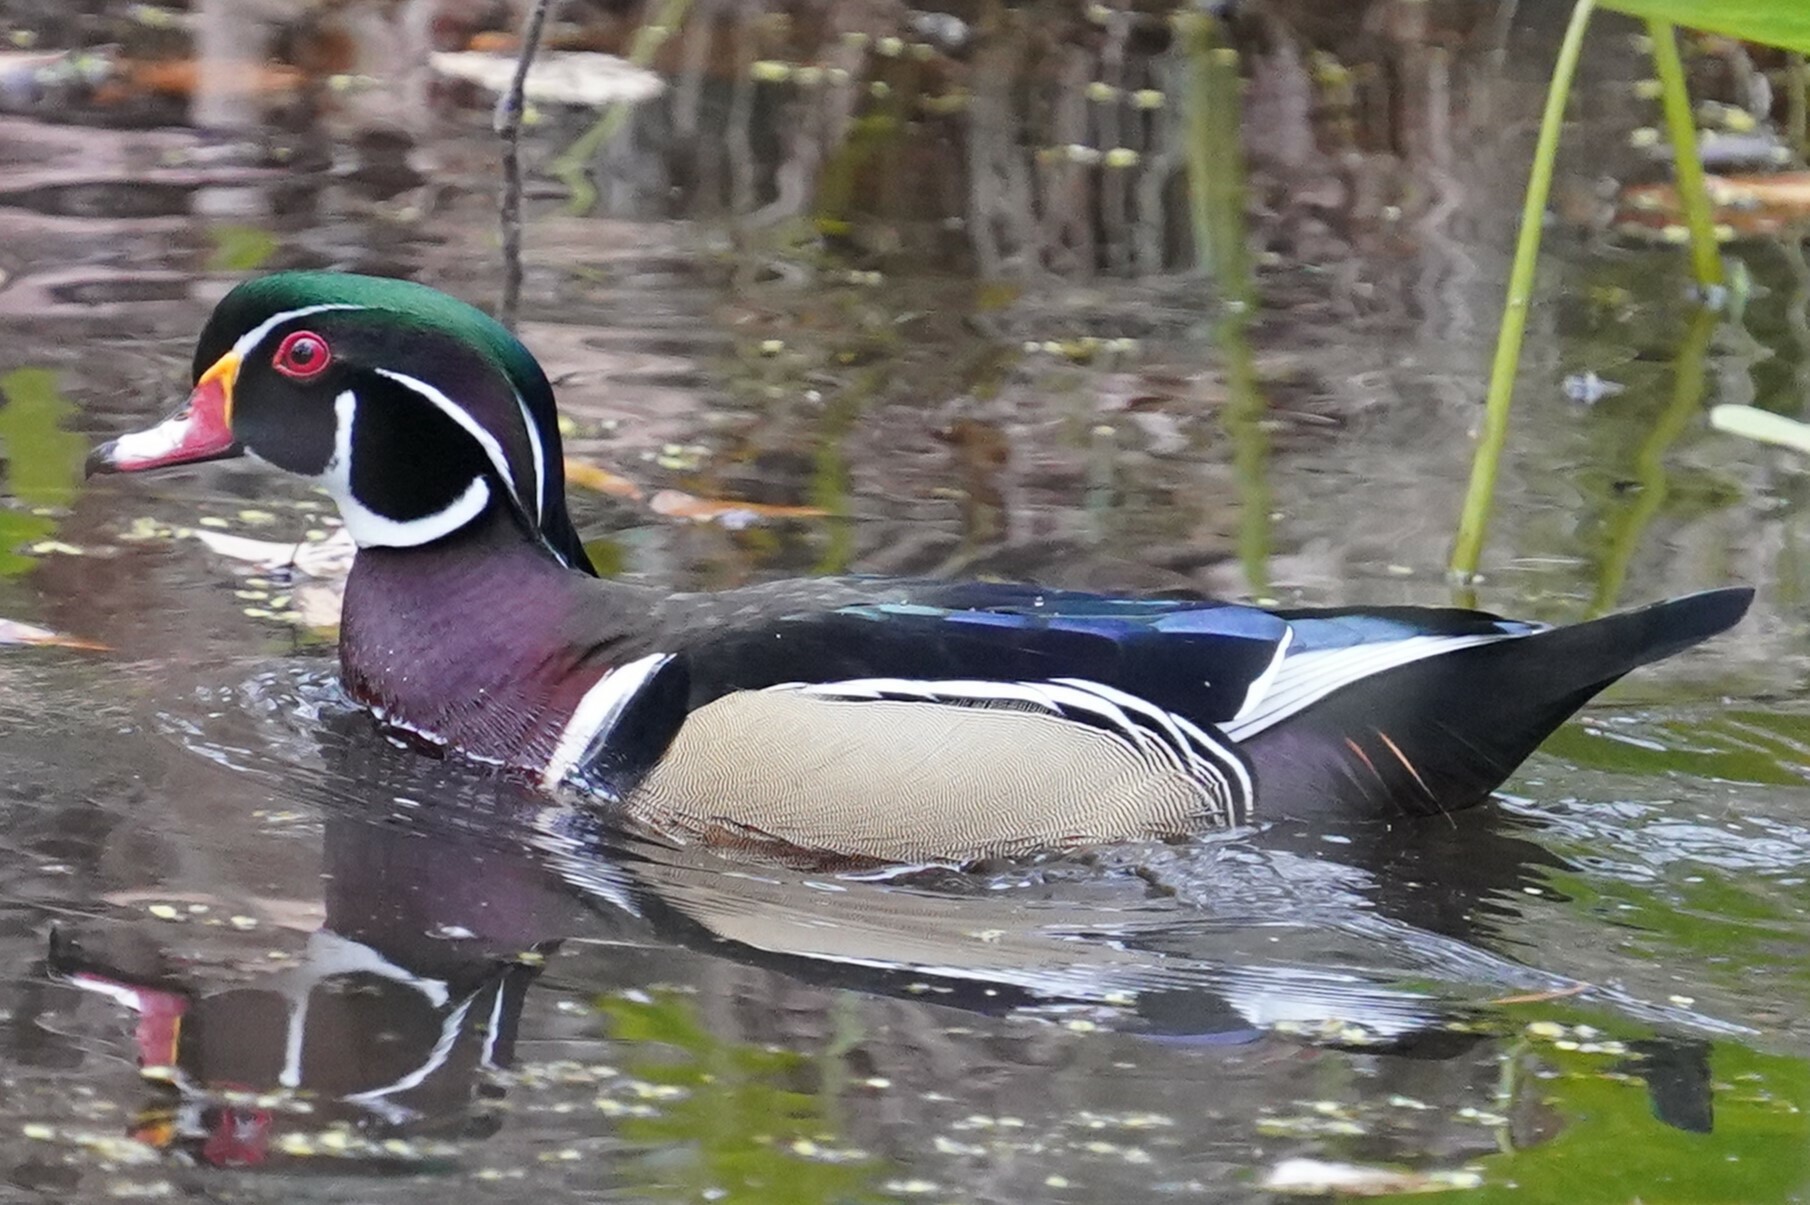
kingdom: Animalia
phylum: Chordata
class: Aves
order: Anseriformes
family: Anatidae
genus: Aix
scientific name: Aix sponsa
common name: Wood duck
